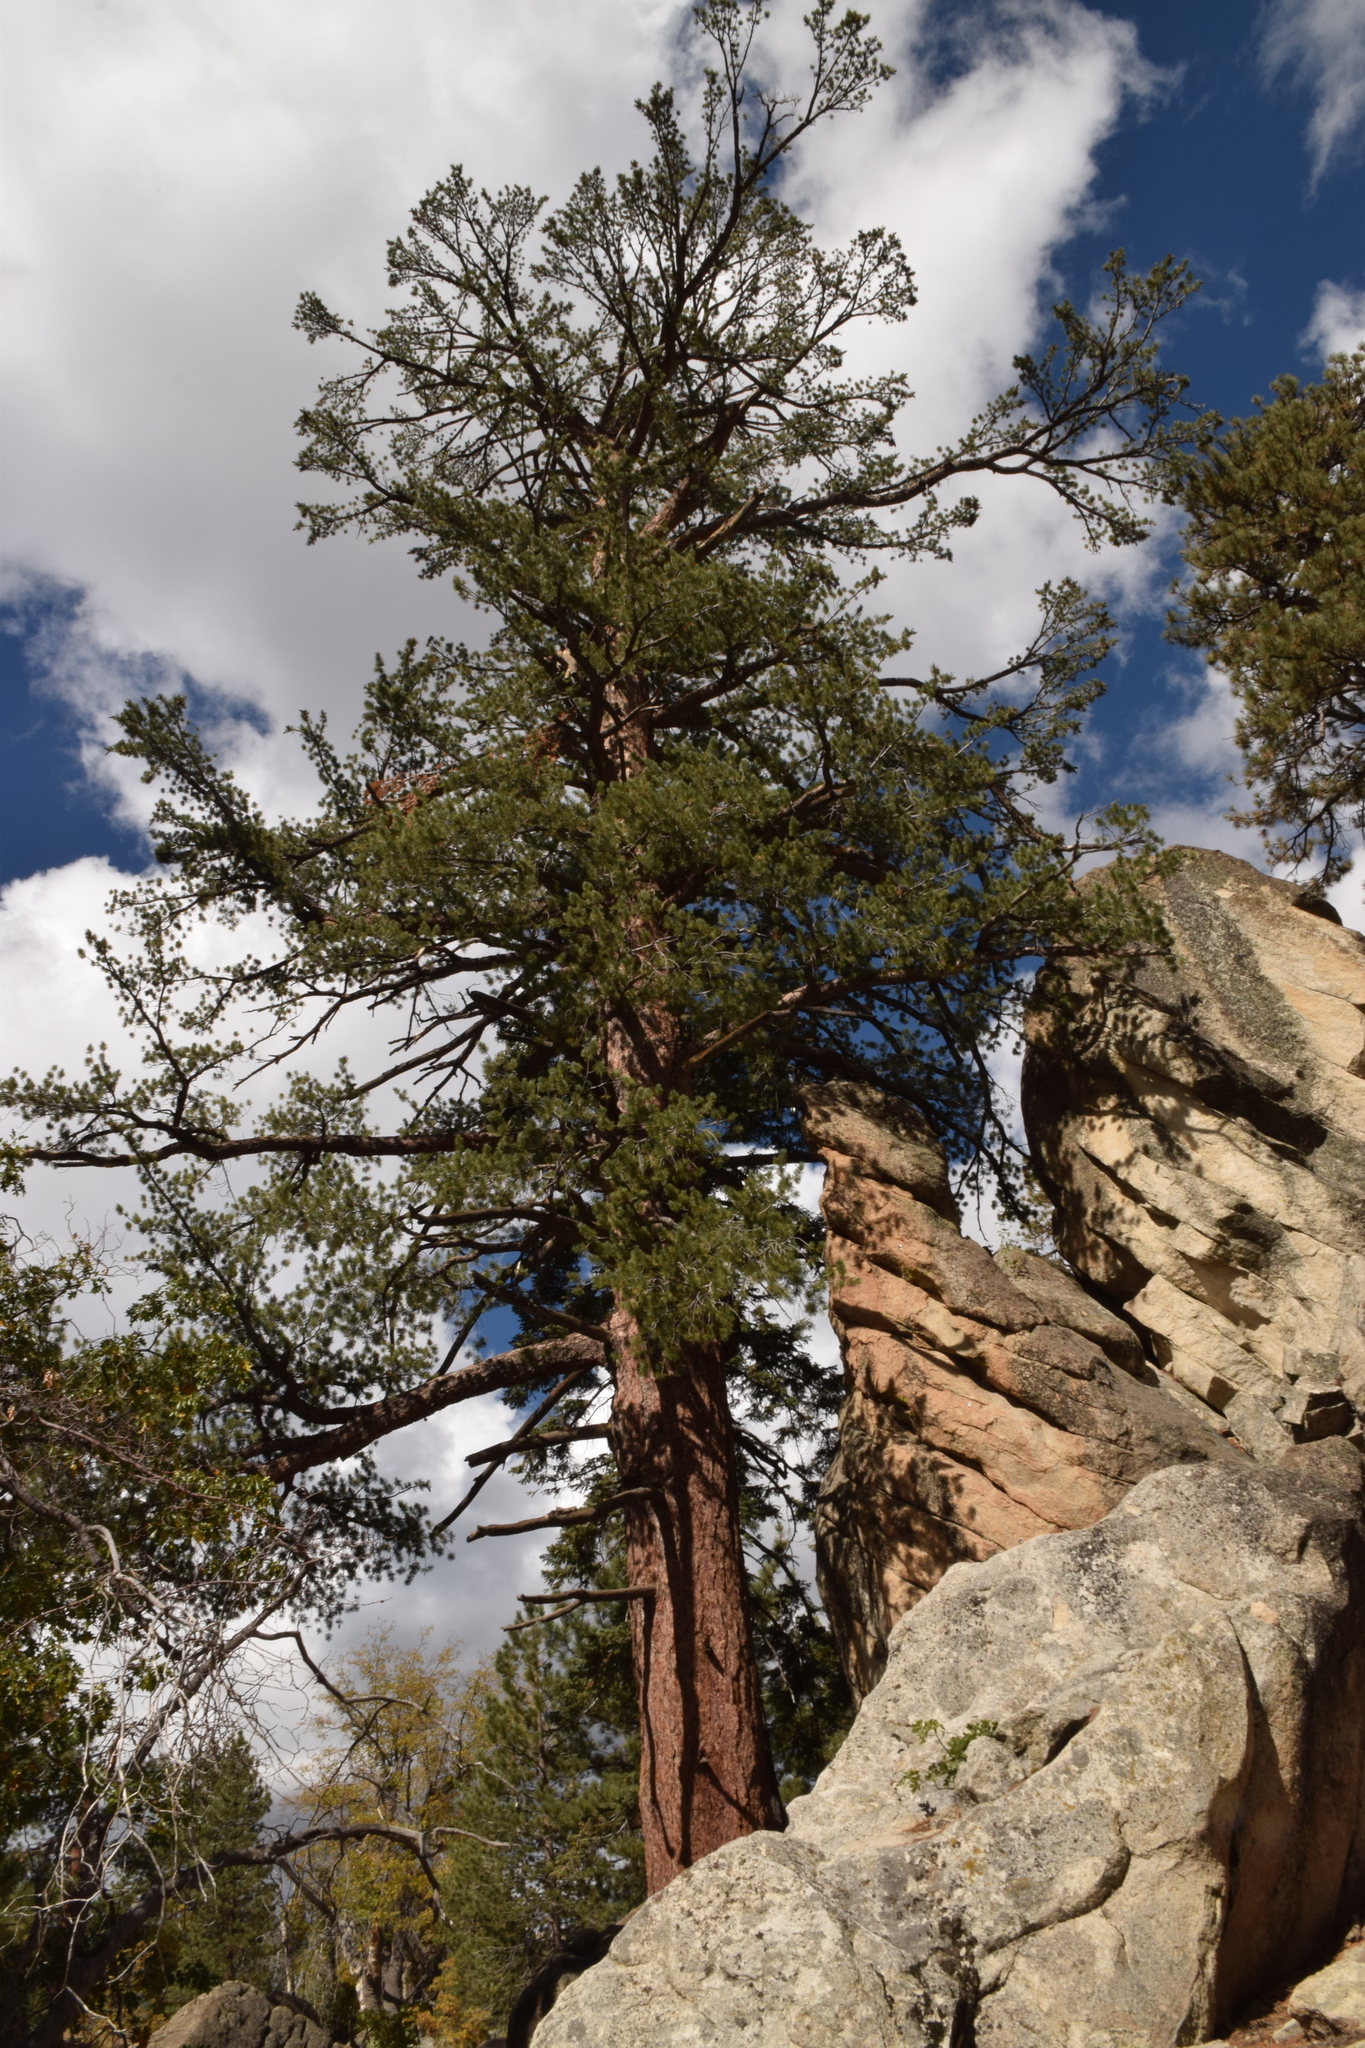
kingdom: Plantae
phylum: Tracheophyta
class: Pinopsida
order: Pinales
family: Pinaceae
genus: Pinus
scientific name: Pinus lambertiana
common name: Sugar pine
